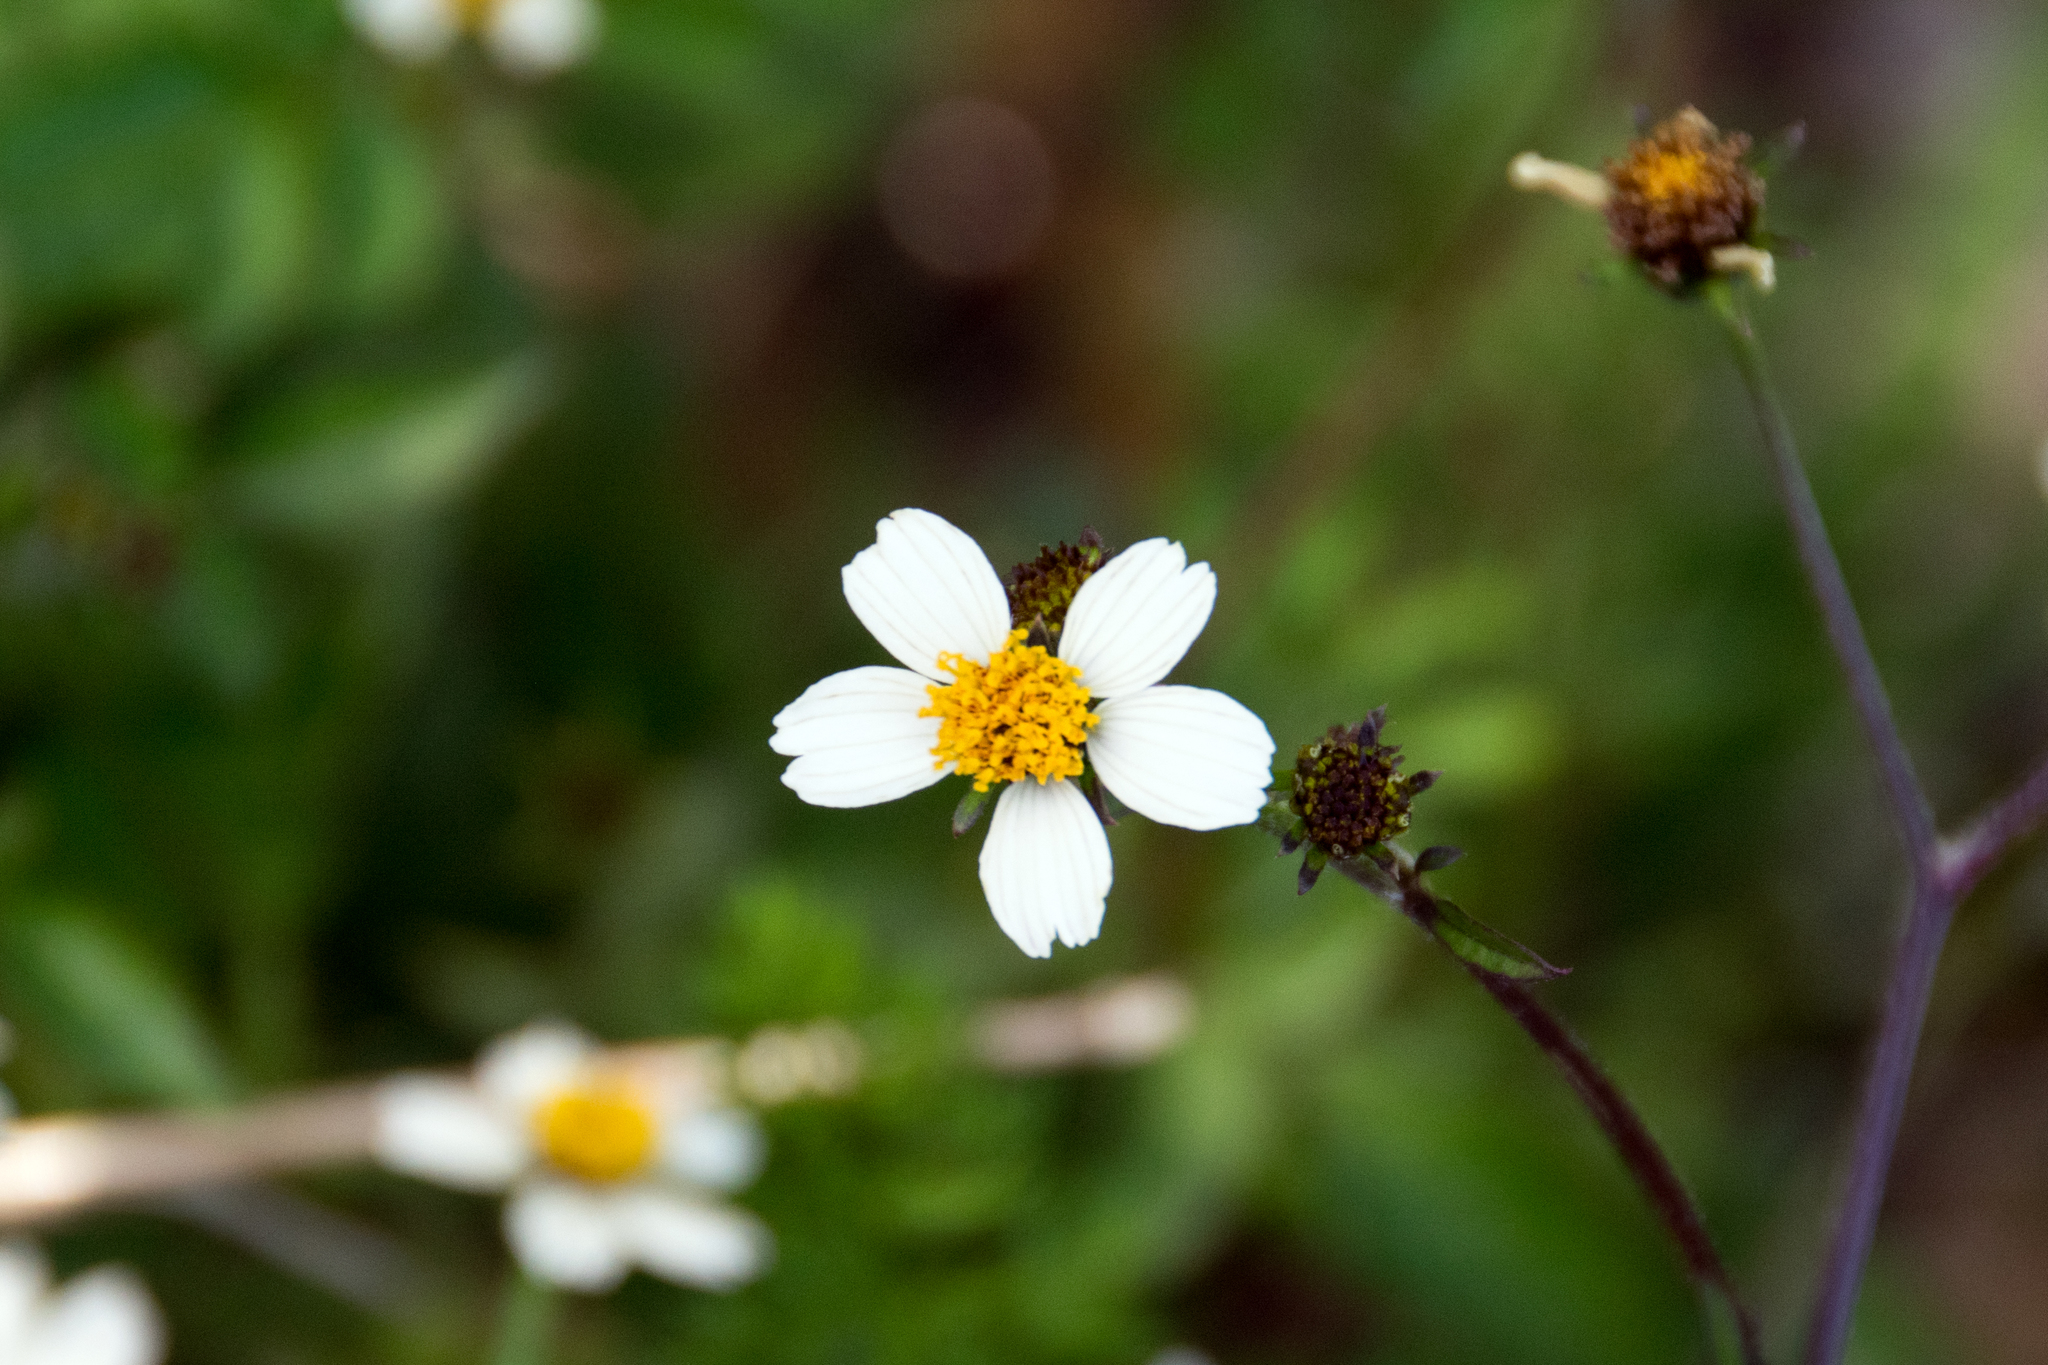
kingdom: Plantae
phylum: Tracheophyta
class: Magnoliopsida
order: Asterales
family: Asteraceae
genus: Bidens
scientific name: Bidens pilosa
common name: Black-jack
